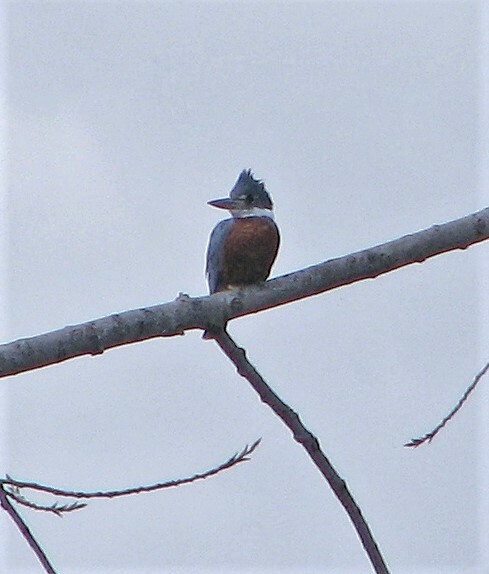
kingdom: Animalia
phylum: Chordata
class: Aves
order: Coraciiformes
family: Alcedinidae
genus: Megaceryle
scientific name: Megaceryle torquata
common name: Ringed kingfisher
